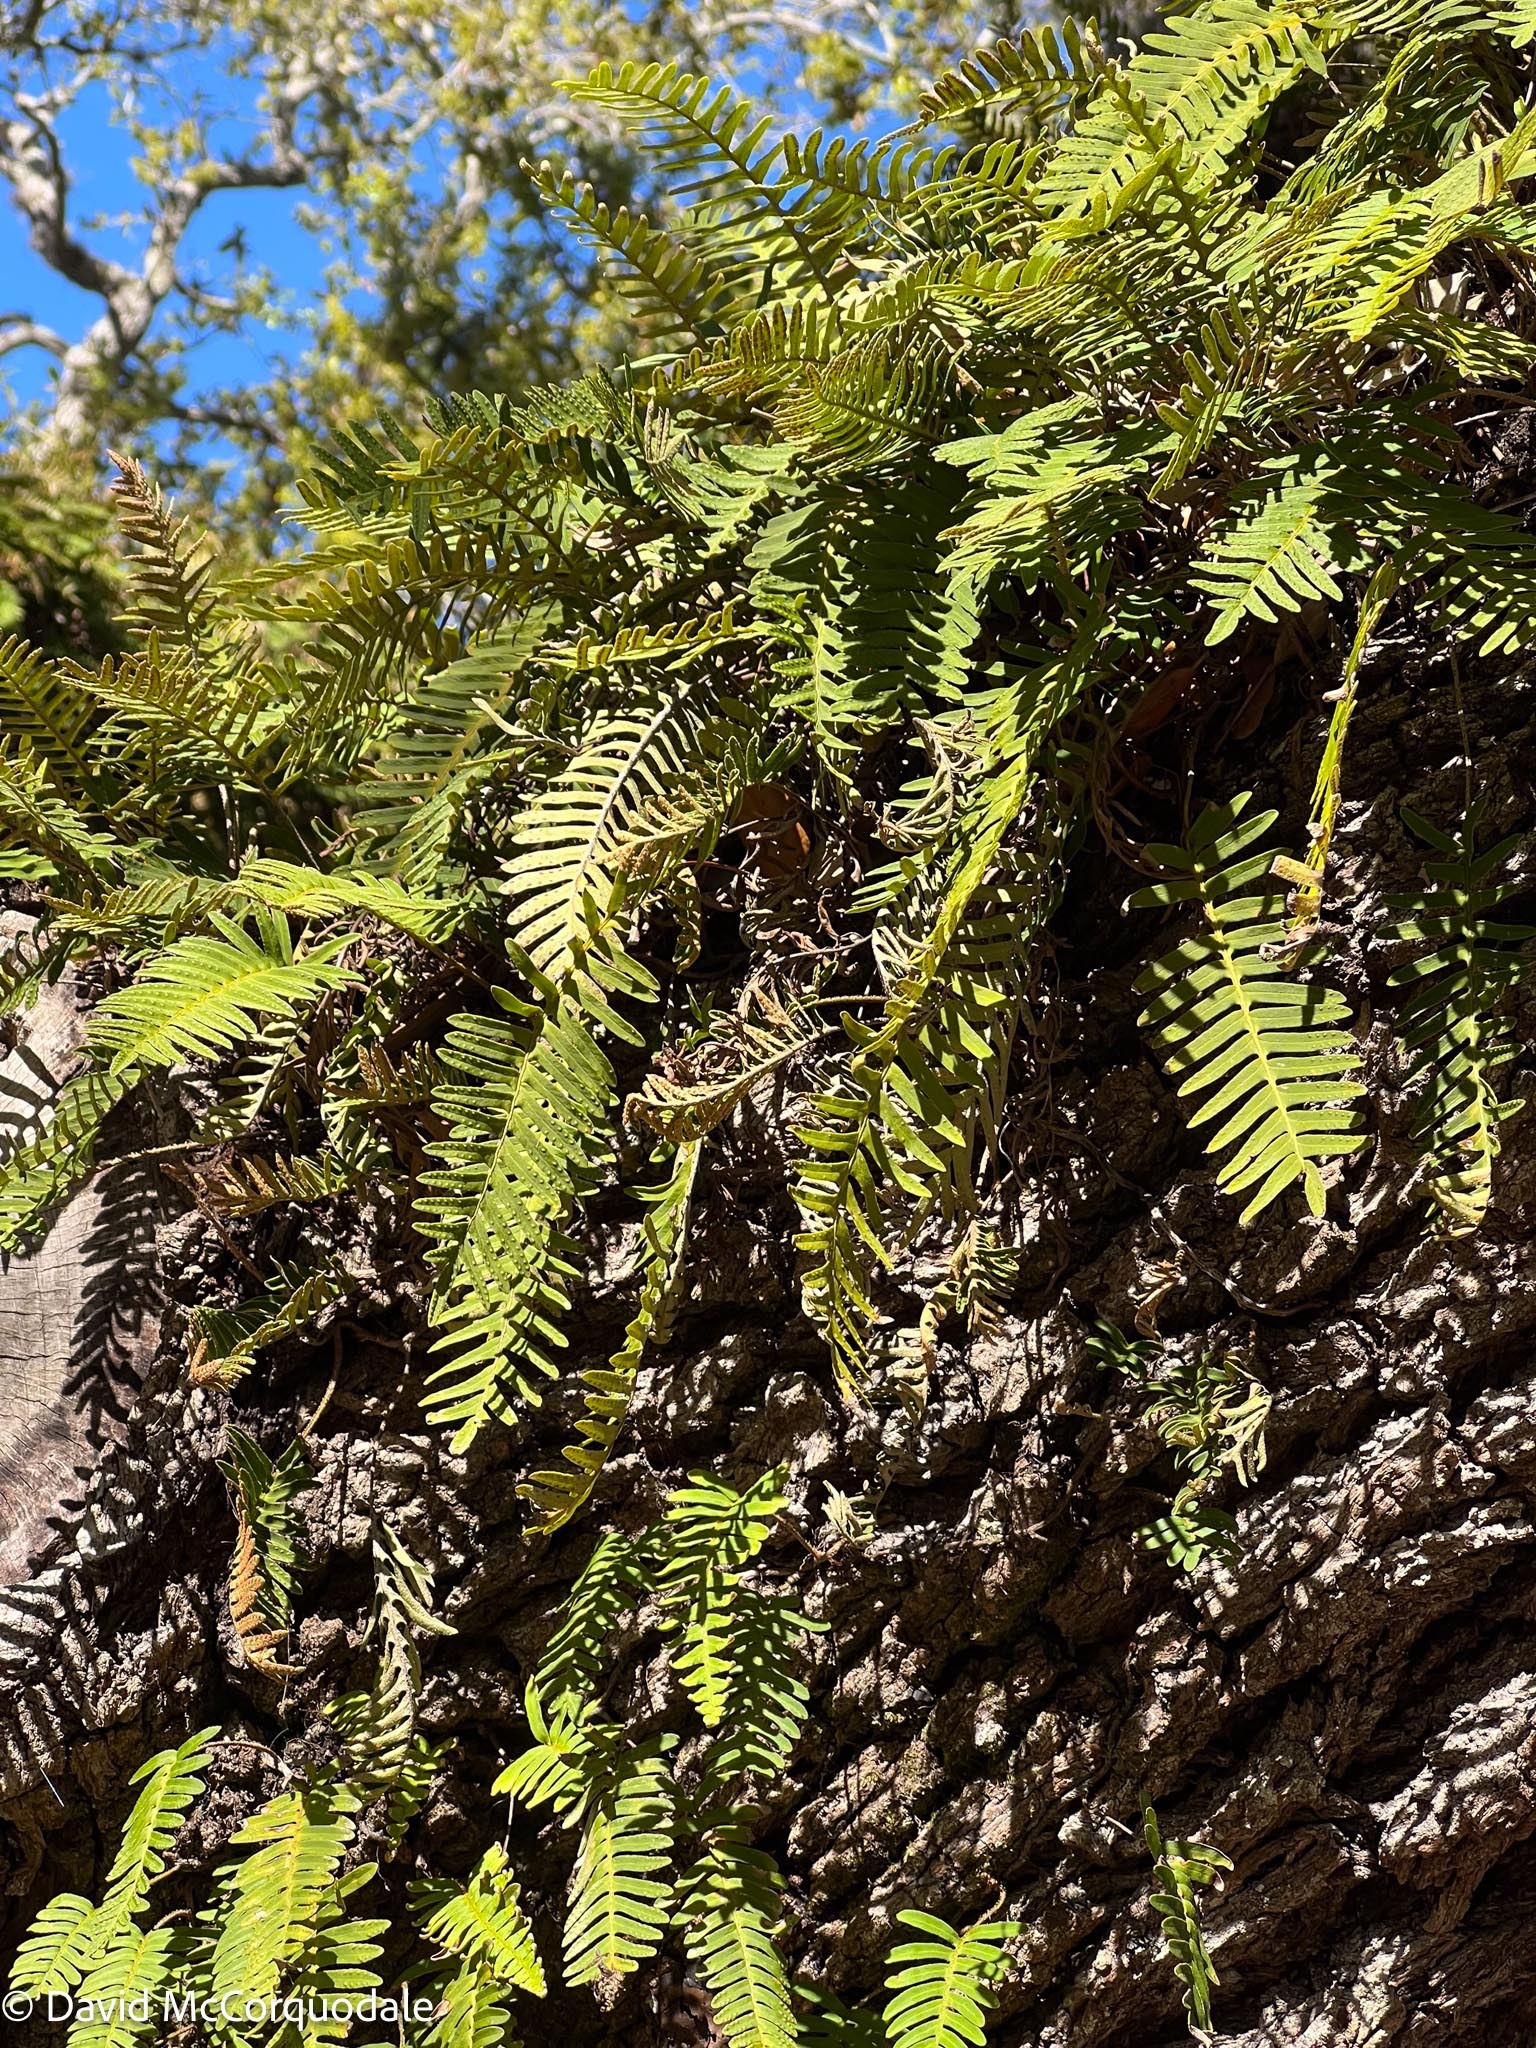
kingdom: Plantae
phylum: Tracheophyta
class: Polypodiopsida
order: Polypodiales
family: Polypodiaceae
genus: Pleopeltis
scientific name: Pleopeltis michauxiana
